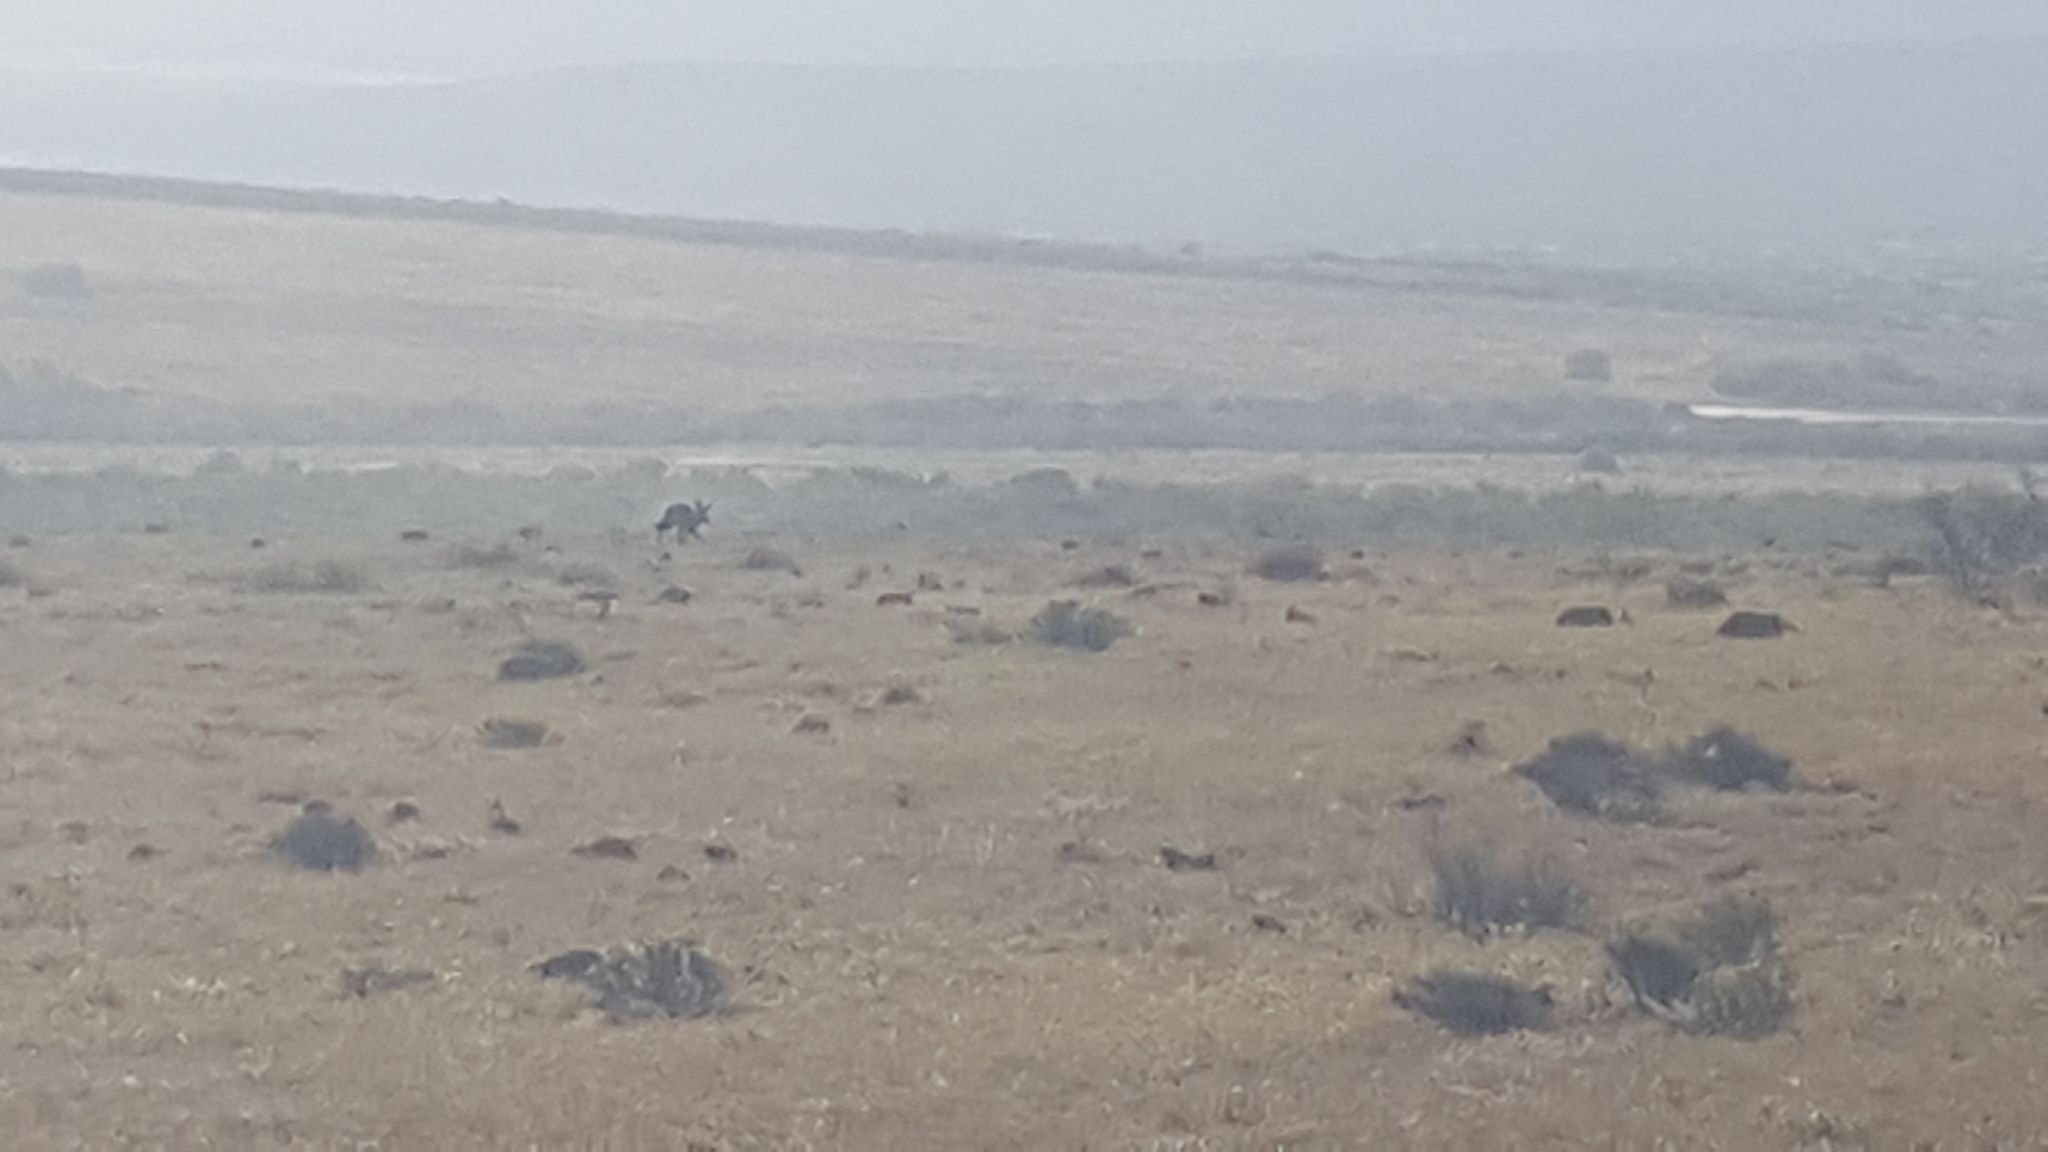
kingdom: Animalia
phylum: Chordata
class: Mammalia
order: Carnivora
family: Canidae
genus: Otocyon
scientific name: Otocyon megalotis
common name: Bat-eared fox
